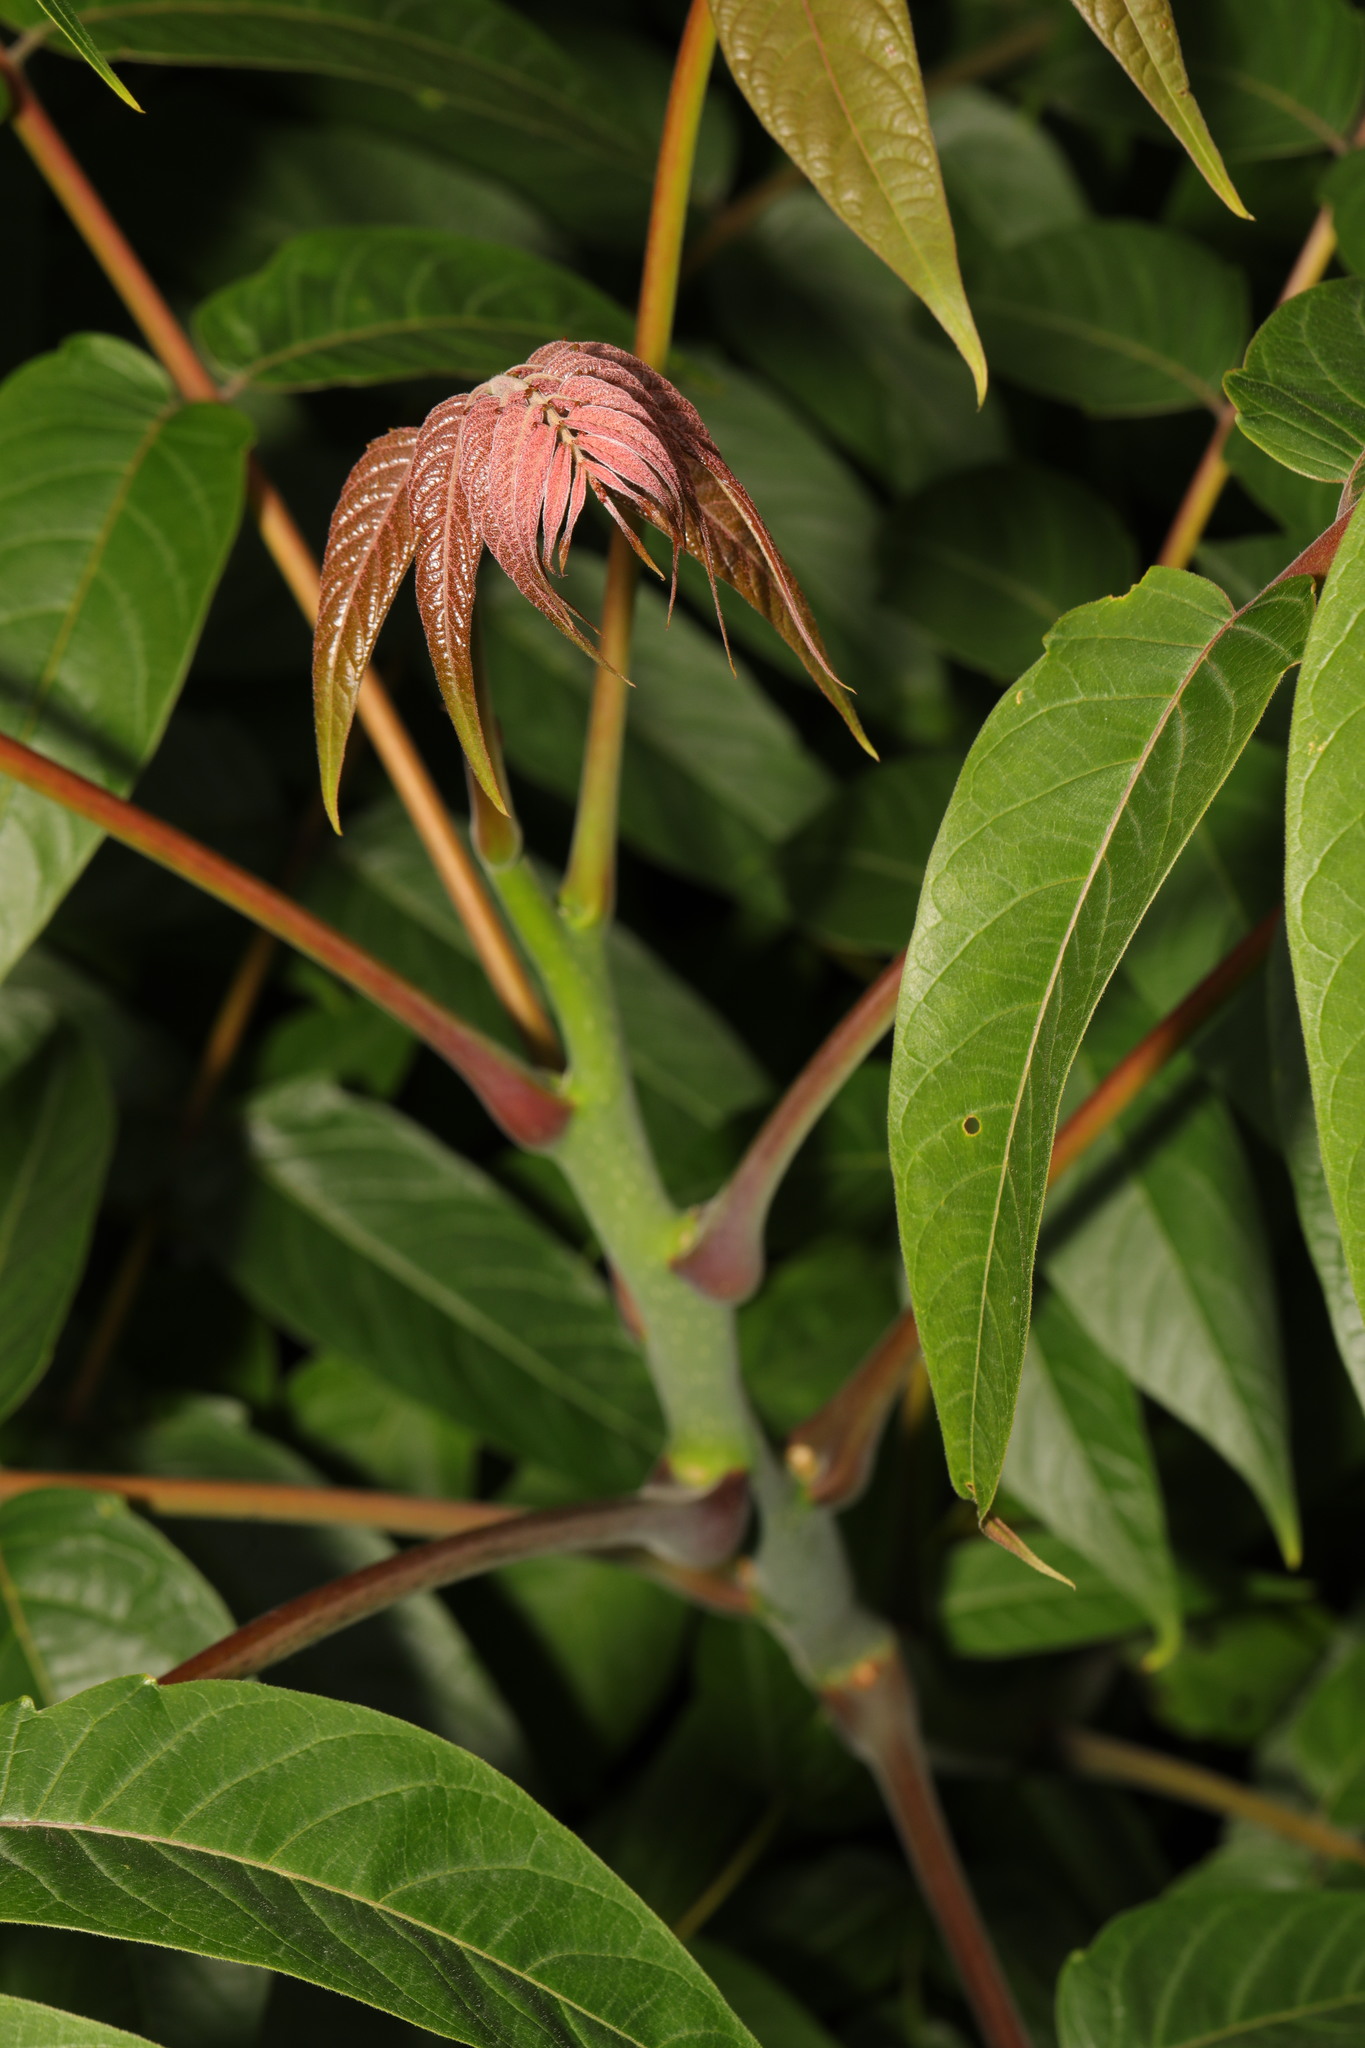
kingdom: Plantae
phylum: Tracheophyta
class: Magnoliopsida
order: Sapindales
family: Simaroubaceae
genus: Ailanthus
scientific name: Ailanthus altissima
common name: Tree-of-heaven
